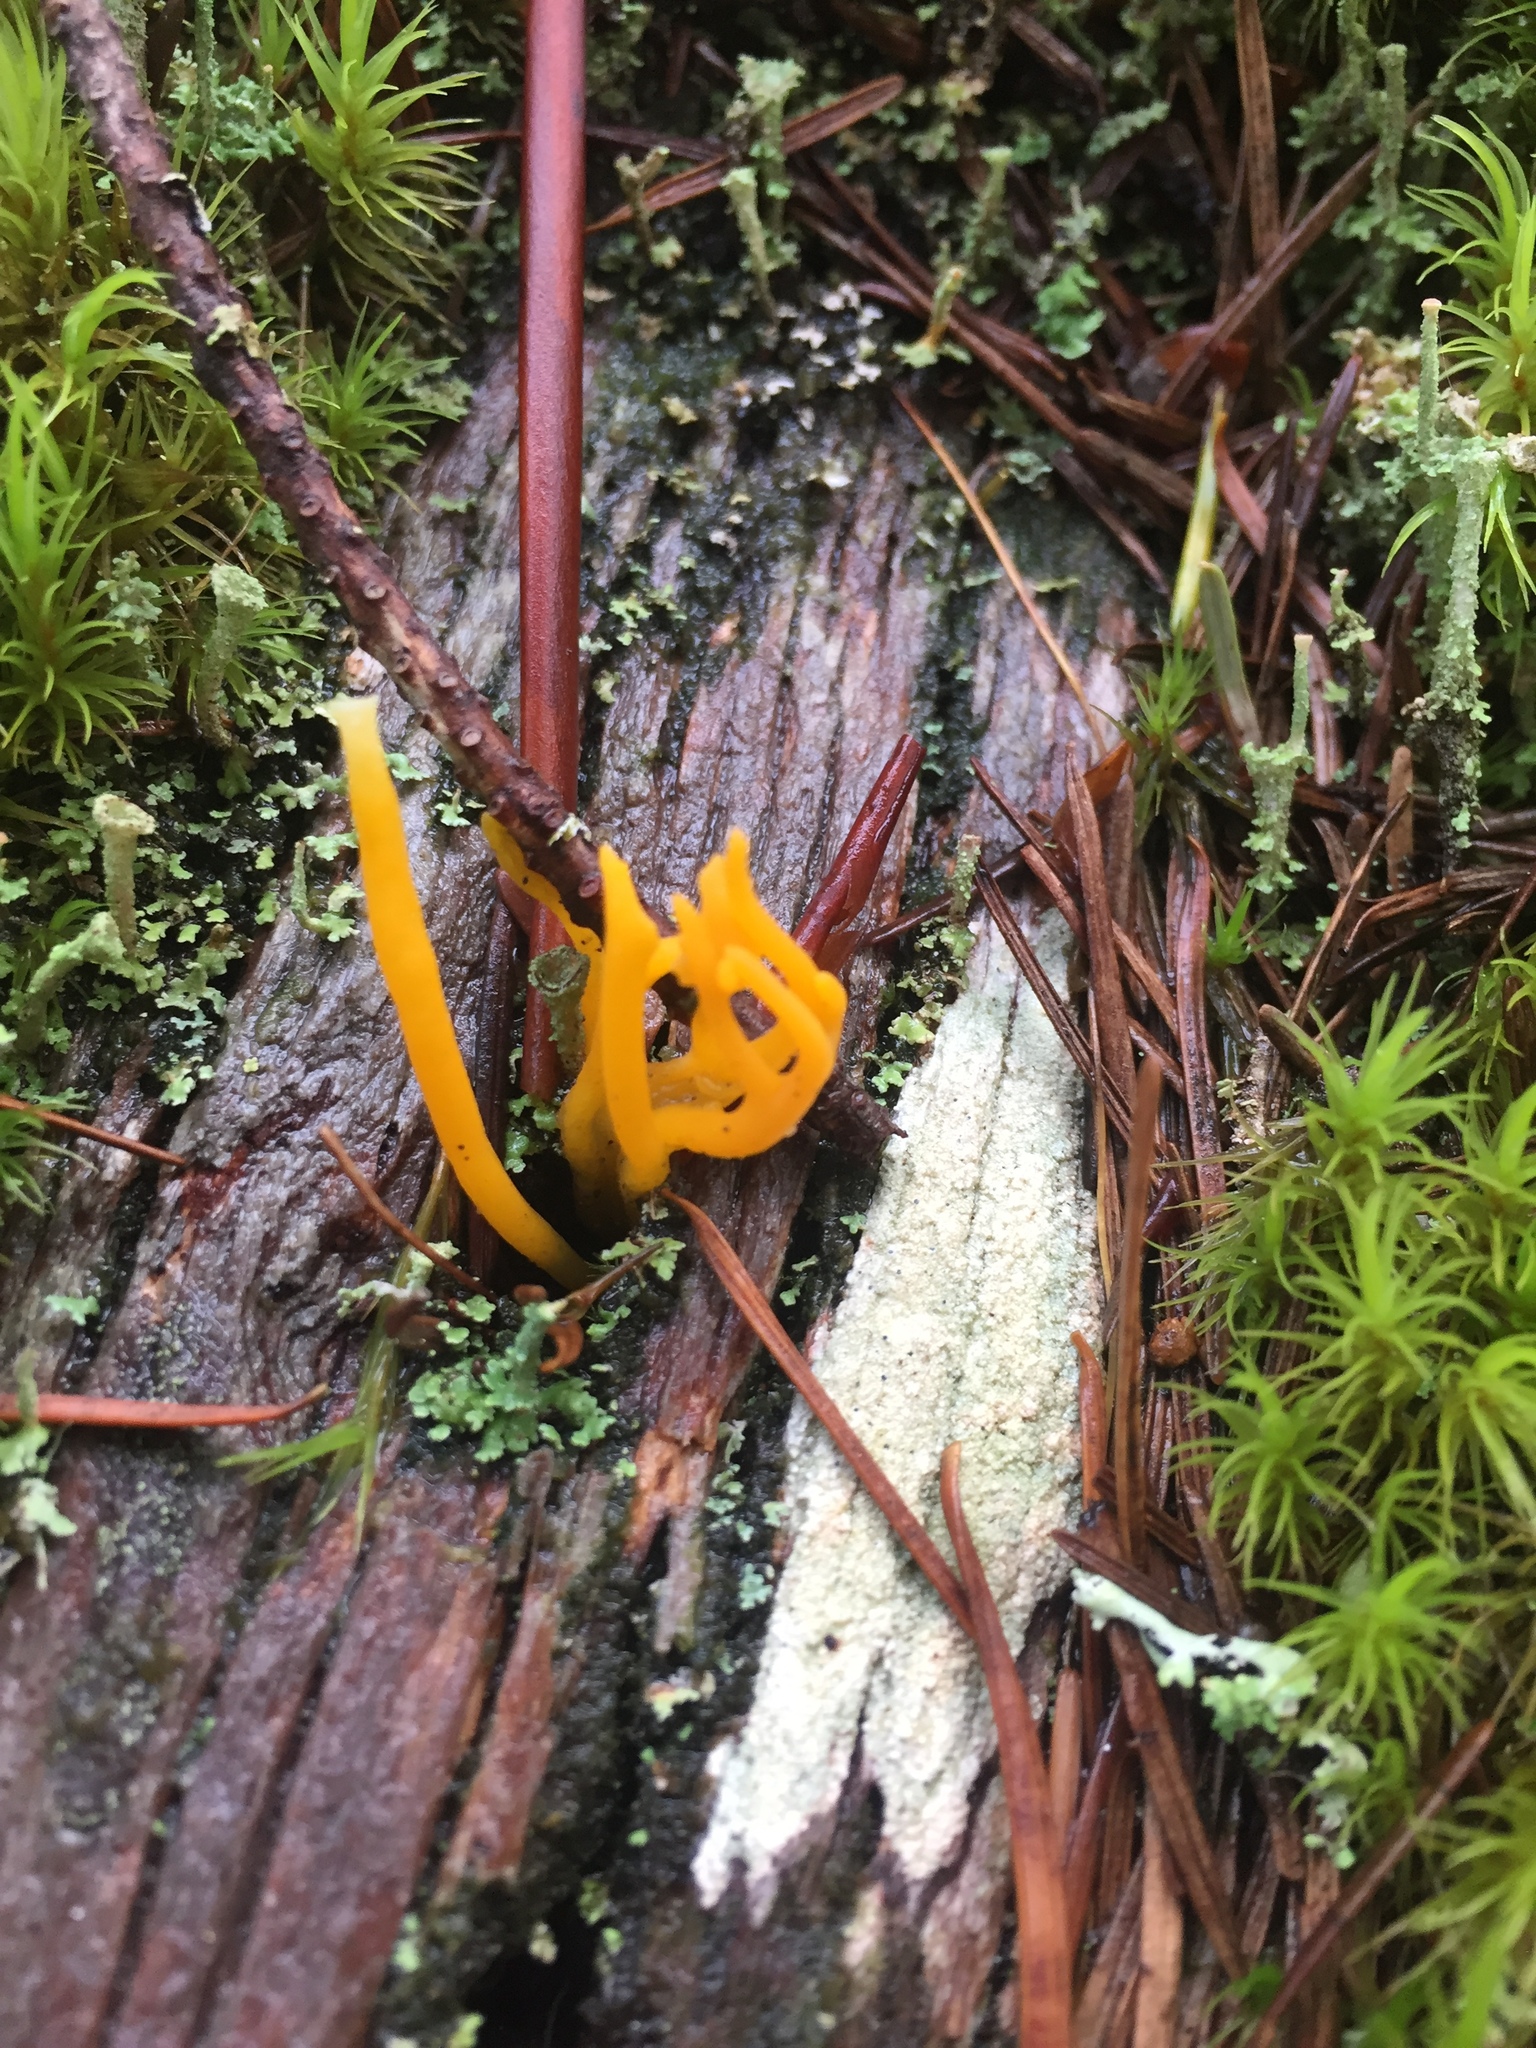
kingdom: Fungi
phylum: Basidiomycota
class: Dacrymycetes
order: Dacrymycetales
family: Dacrymycetaceae
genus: Calocera
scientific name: Calocera viscosa
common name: Yellow stagshorn
